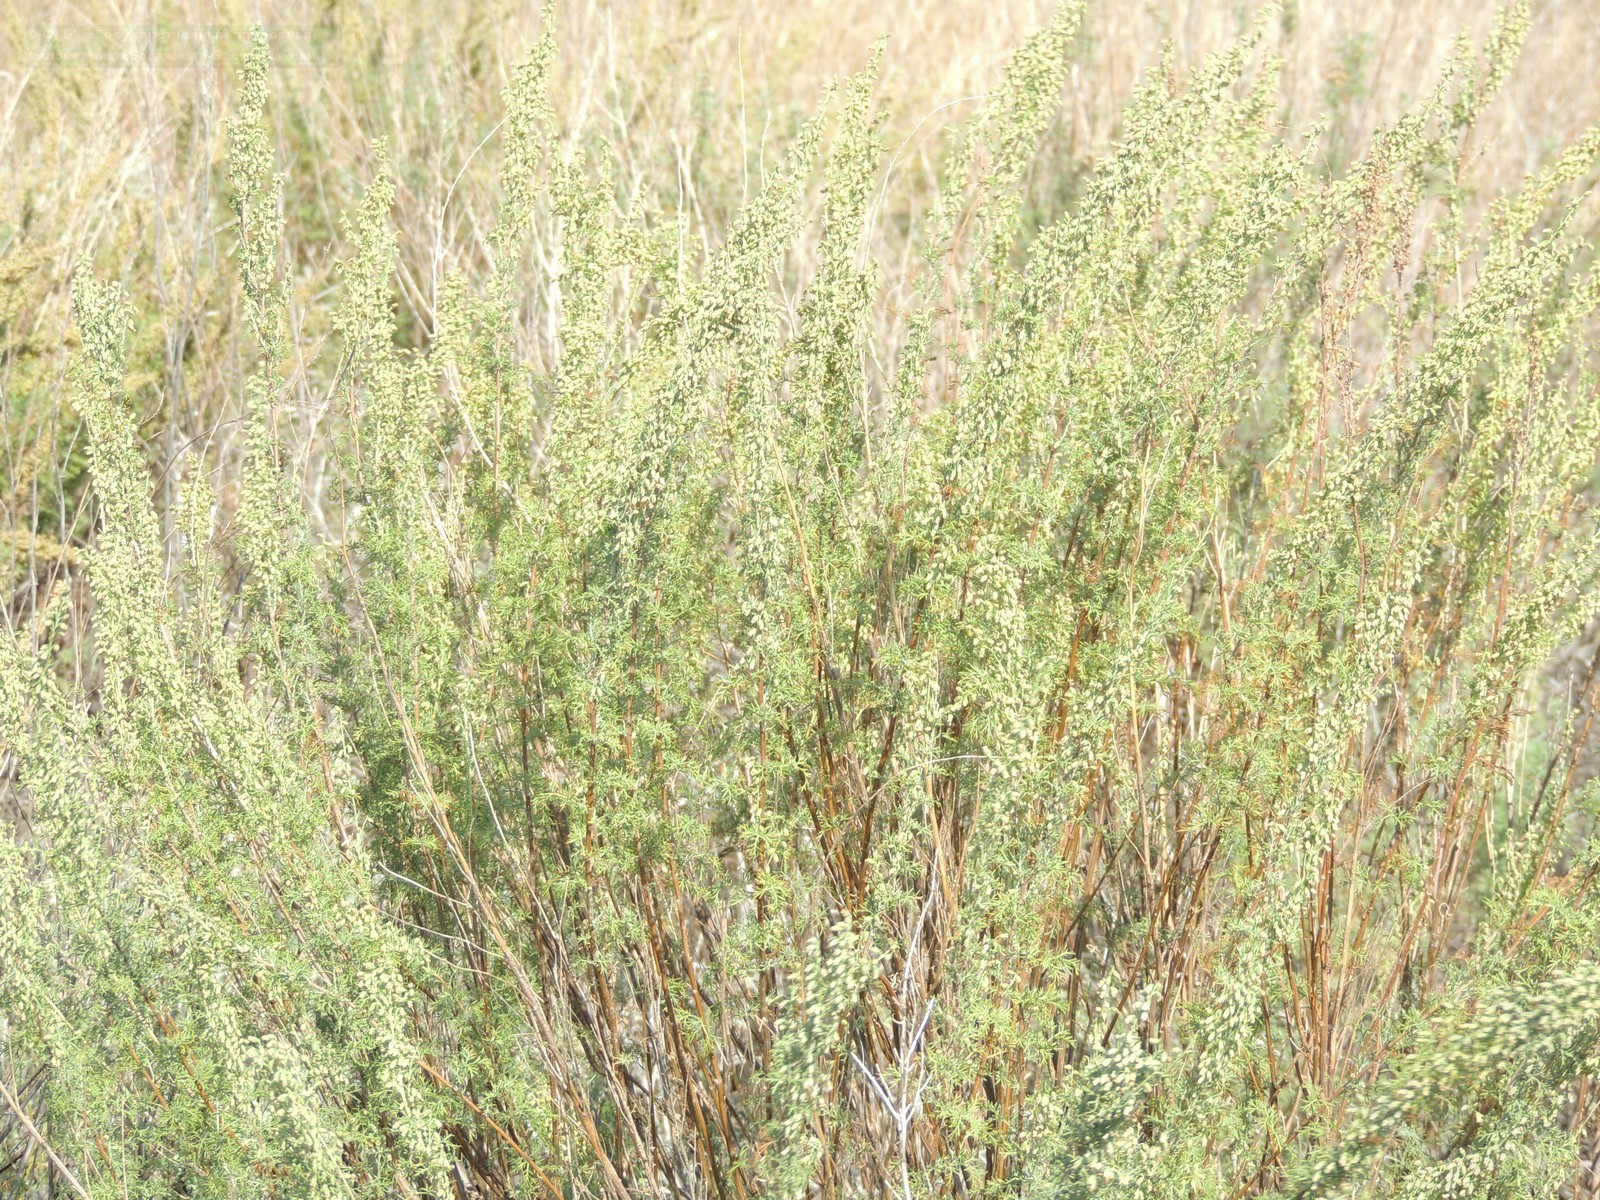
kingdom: Plantae
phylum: Tracheophyta
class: Magnoliopsida
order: Asterales
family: Asteraceae
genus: Artemisia
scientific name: Artemisia abrotanum
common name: Southernwood
